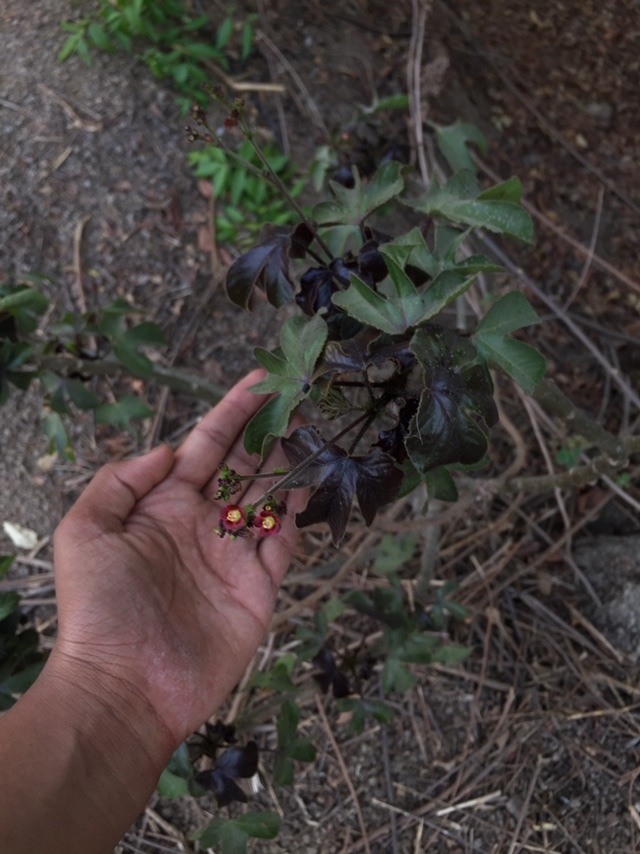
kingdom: Plantae
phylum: Tracheophyta
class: Magnoliopsida
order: Malpighiales
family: Euphorbiaceae
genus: Jatropha
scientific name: Jatropha gossypiifolia
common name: Bellyache bush
